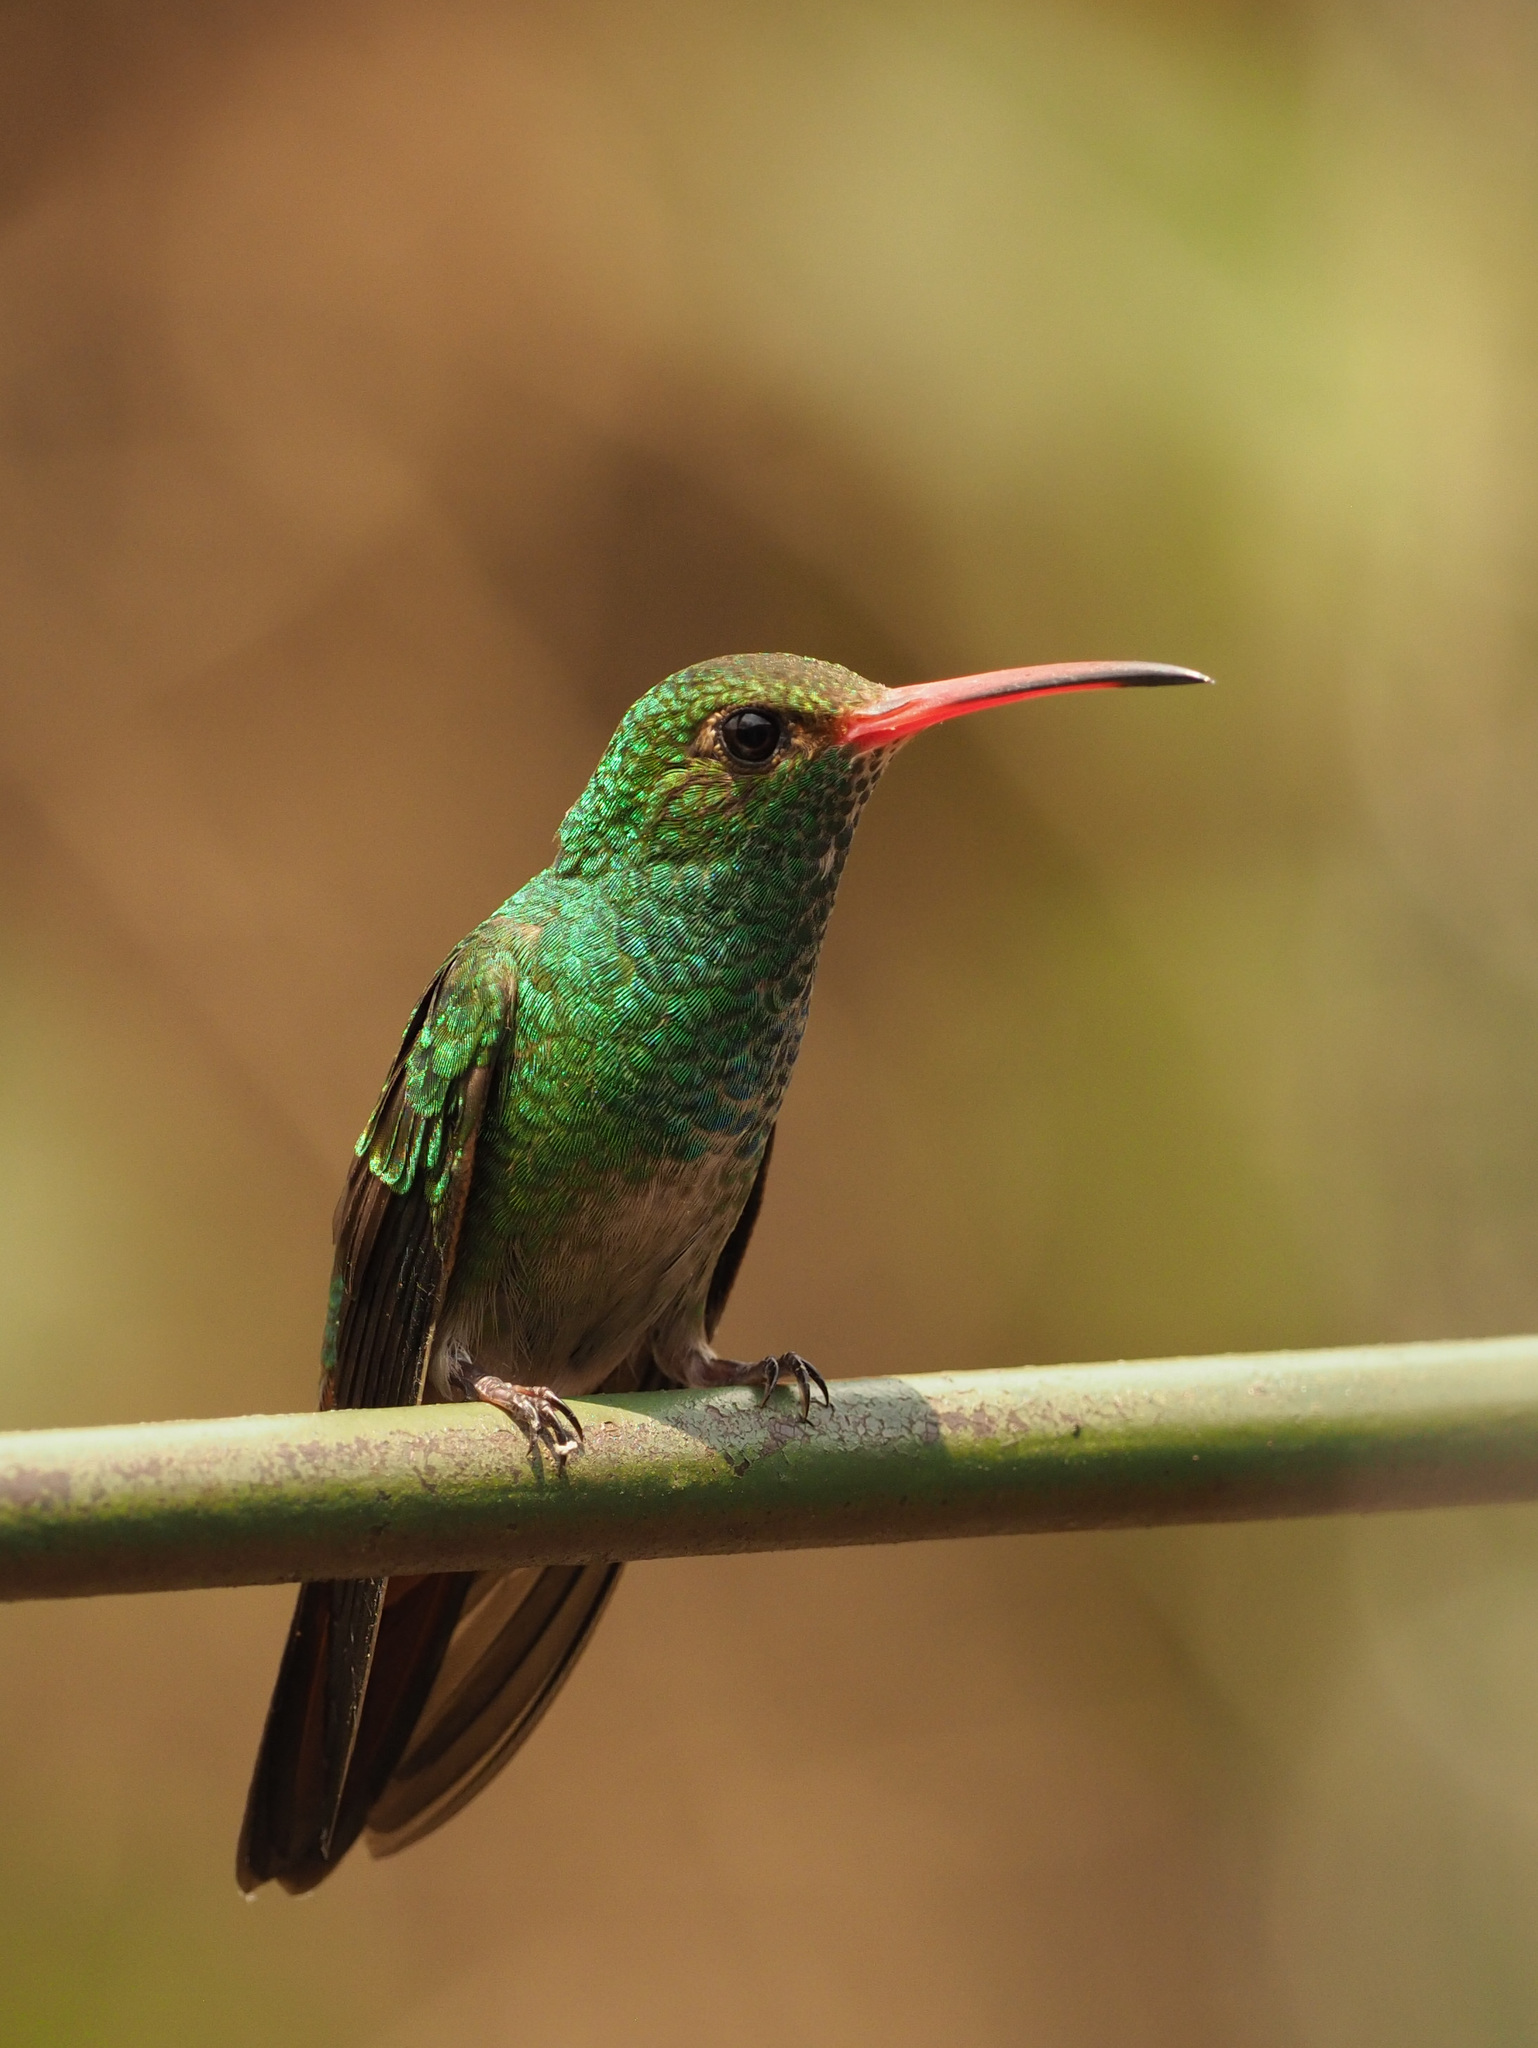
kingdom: Animalia
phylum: Chordata
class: Aves
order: Apodiformes
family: Trochilidae
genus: Amazilia
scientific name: Amazilia tzacatl
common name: Rufous-tailed hummingbird
